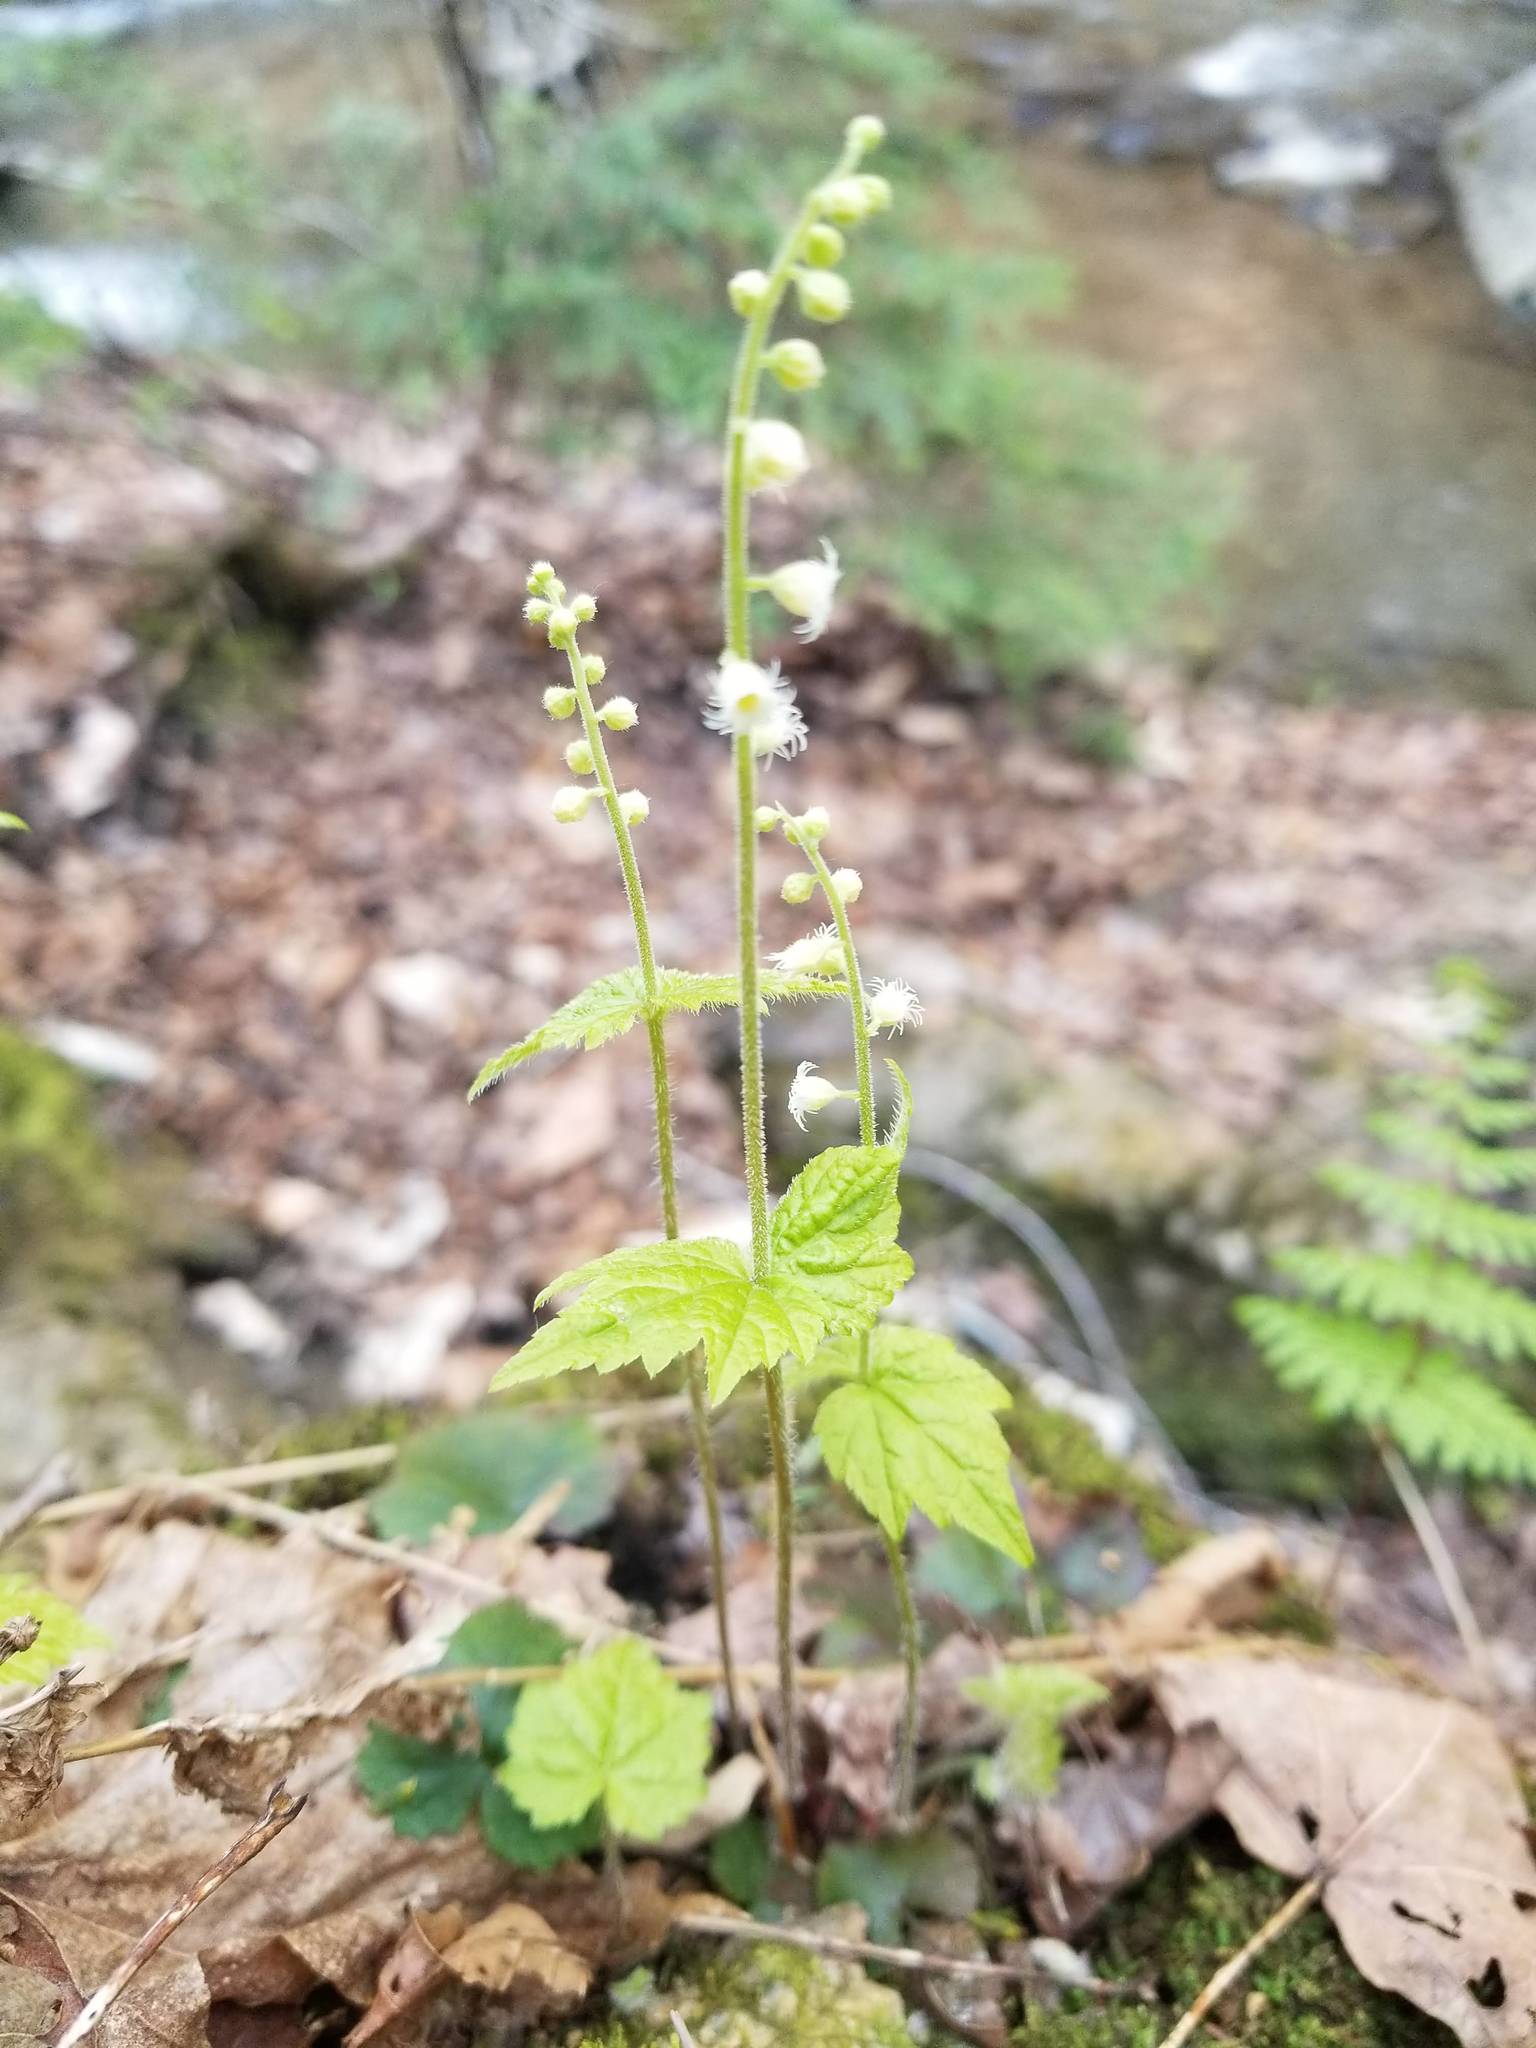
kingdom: Plantae
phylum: Tracheophyta
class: Magnoliopsida
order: Saxifragales
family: Saxifragaceae
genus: Mitella
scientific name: Mitella diphylla
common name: Coolwort
